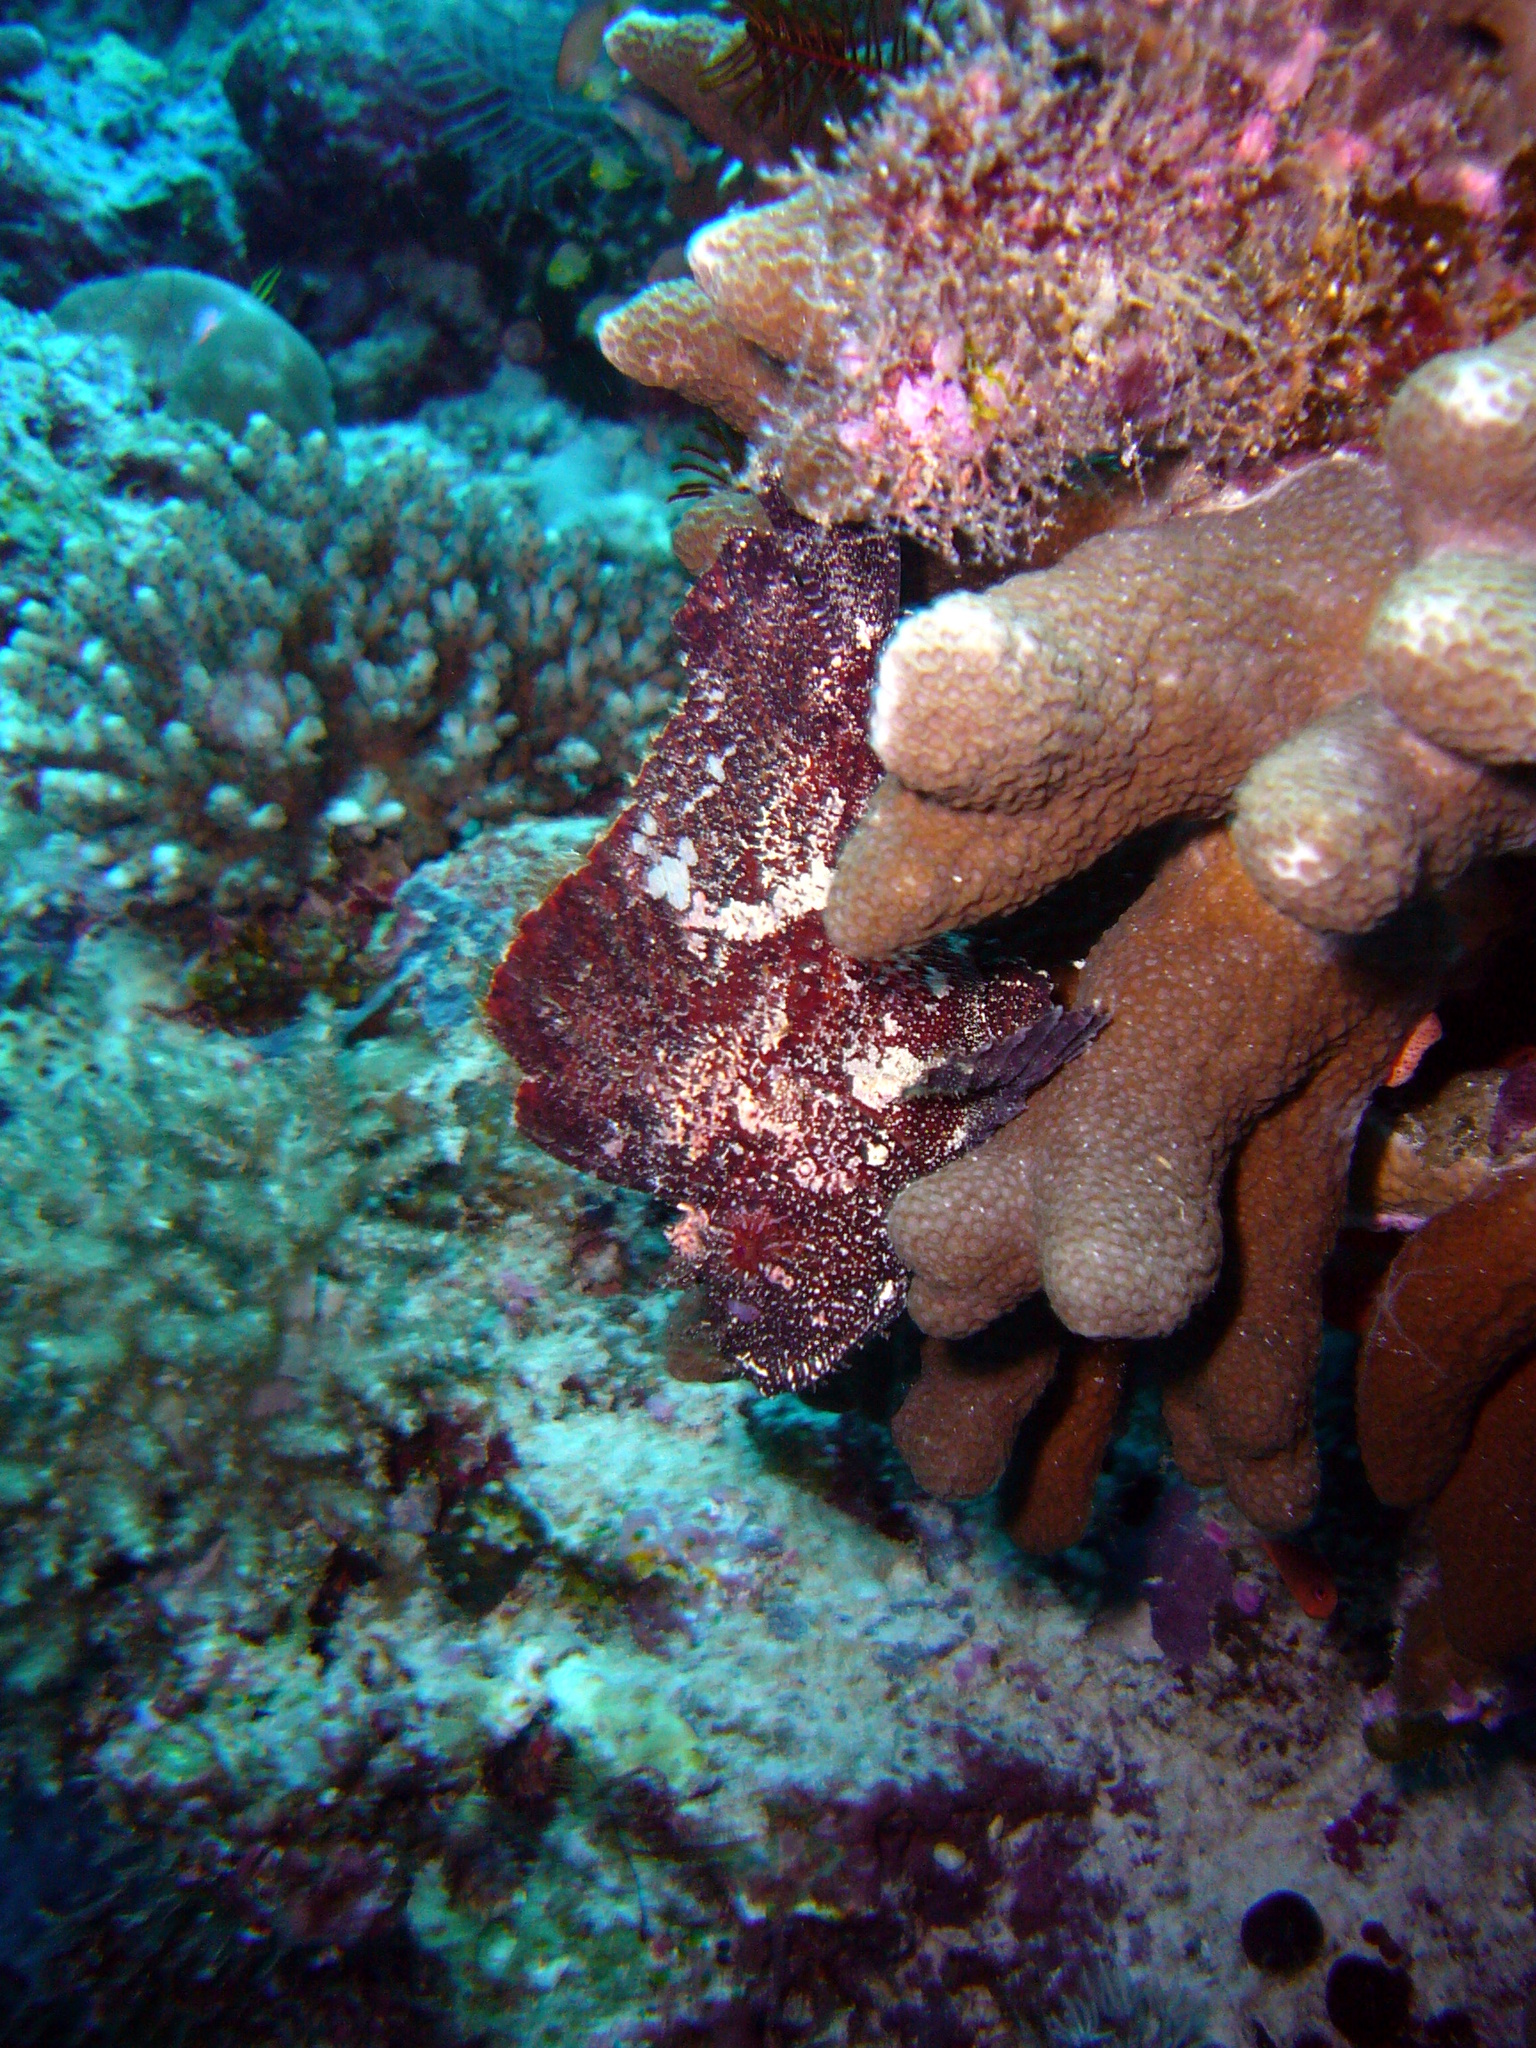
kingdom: Animalia
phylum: Chordata
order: Scorpaeniformes
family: Scorpaenidae
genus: Taenianotus
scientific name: Taenianotus triacanthus
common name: Leaf scorpionfish
